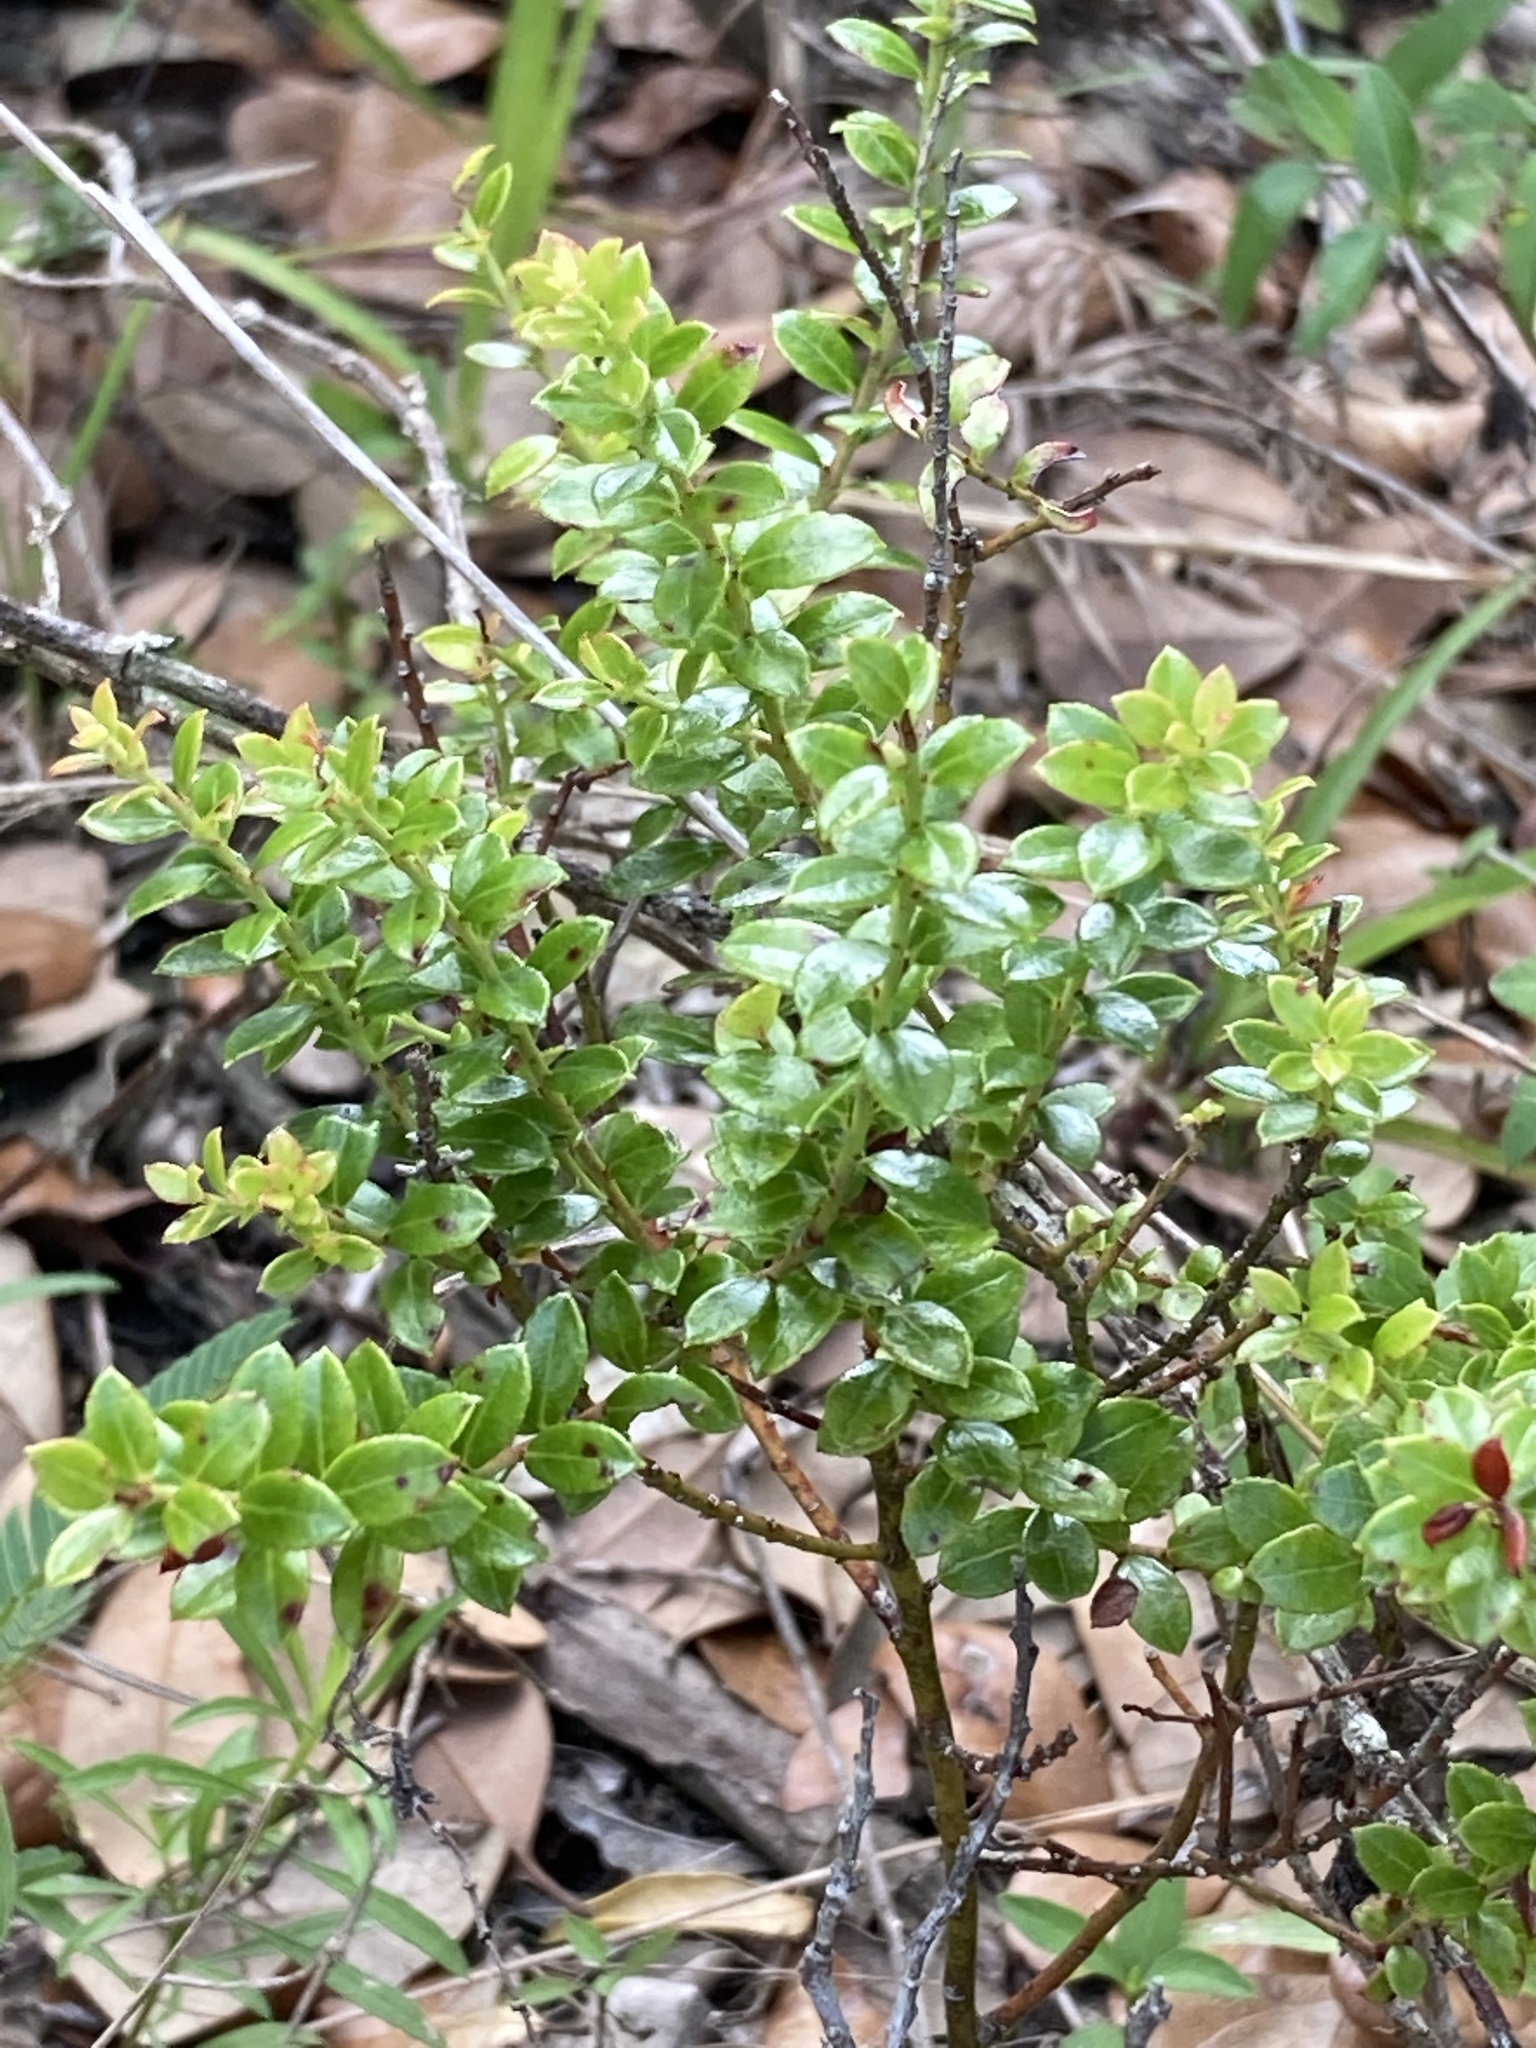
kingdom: Plantae
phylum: Tracheophyta
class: Magnoliopsida
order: Ericales
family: Ericaceae
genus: Vaccinium
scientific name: Vaccinium myrsinites
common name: Evergreen blueberry
